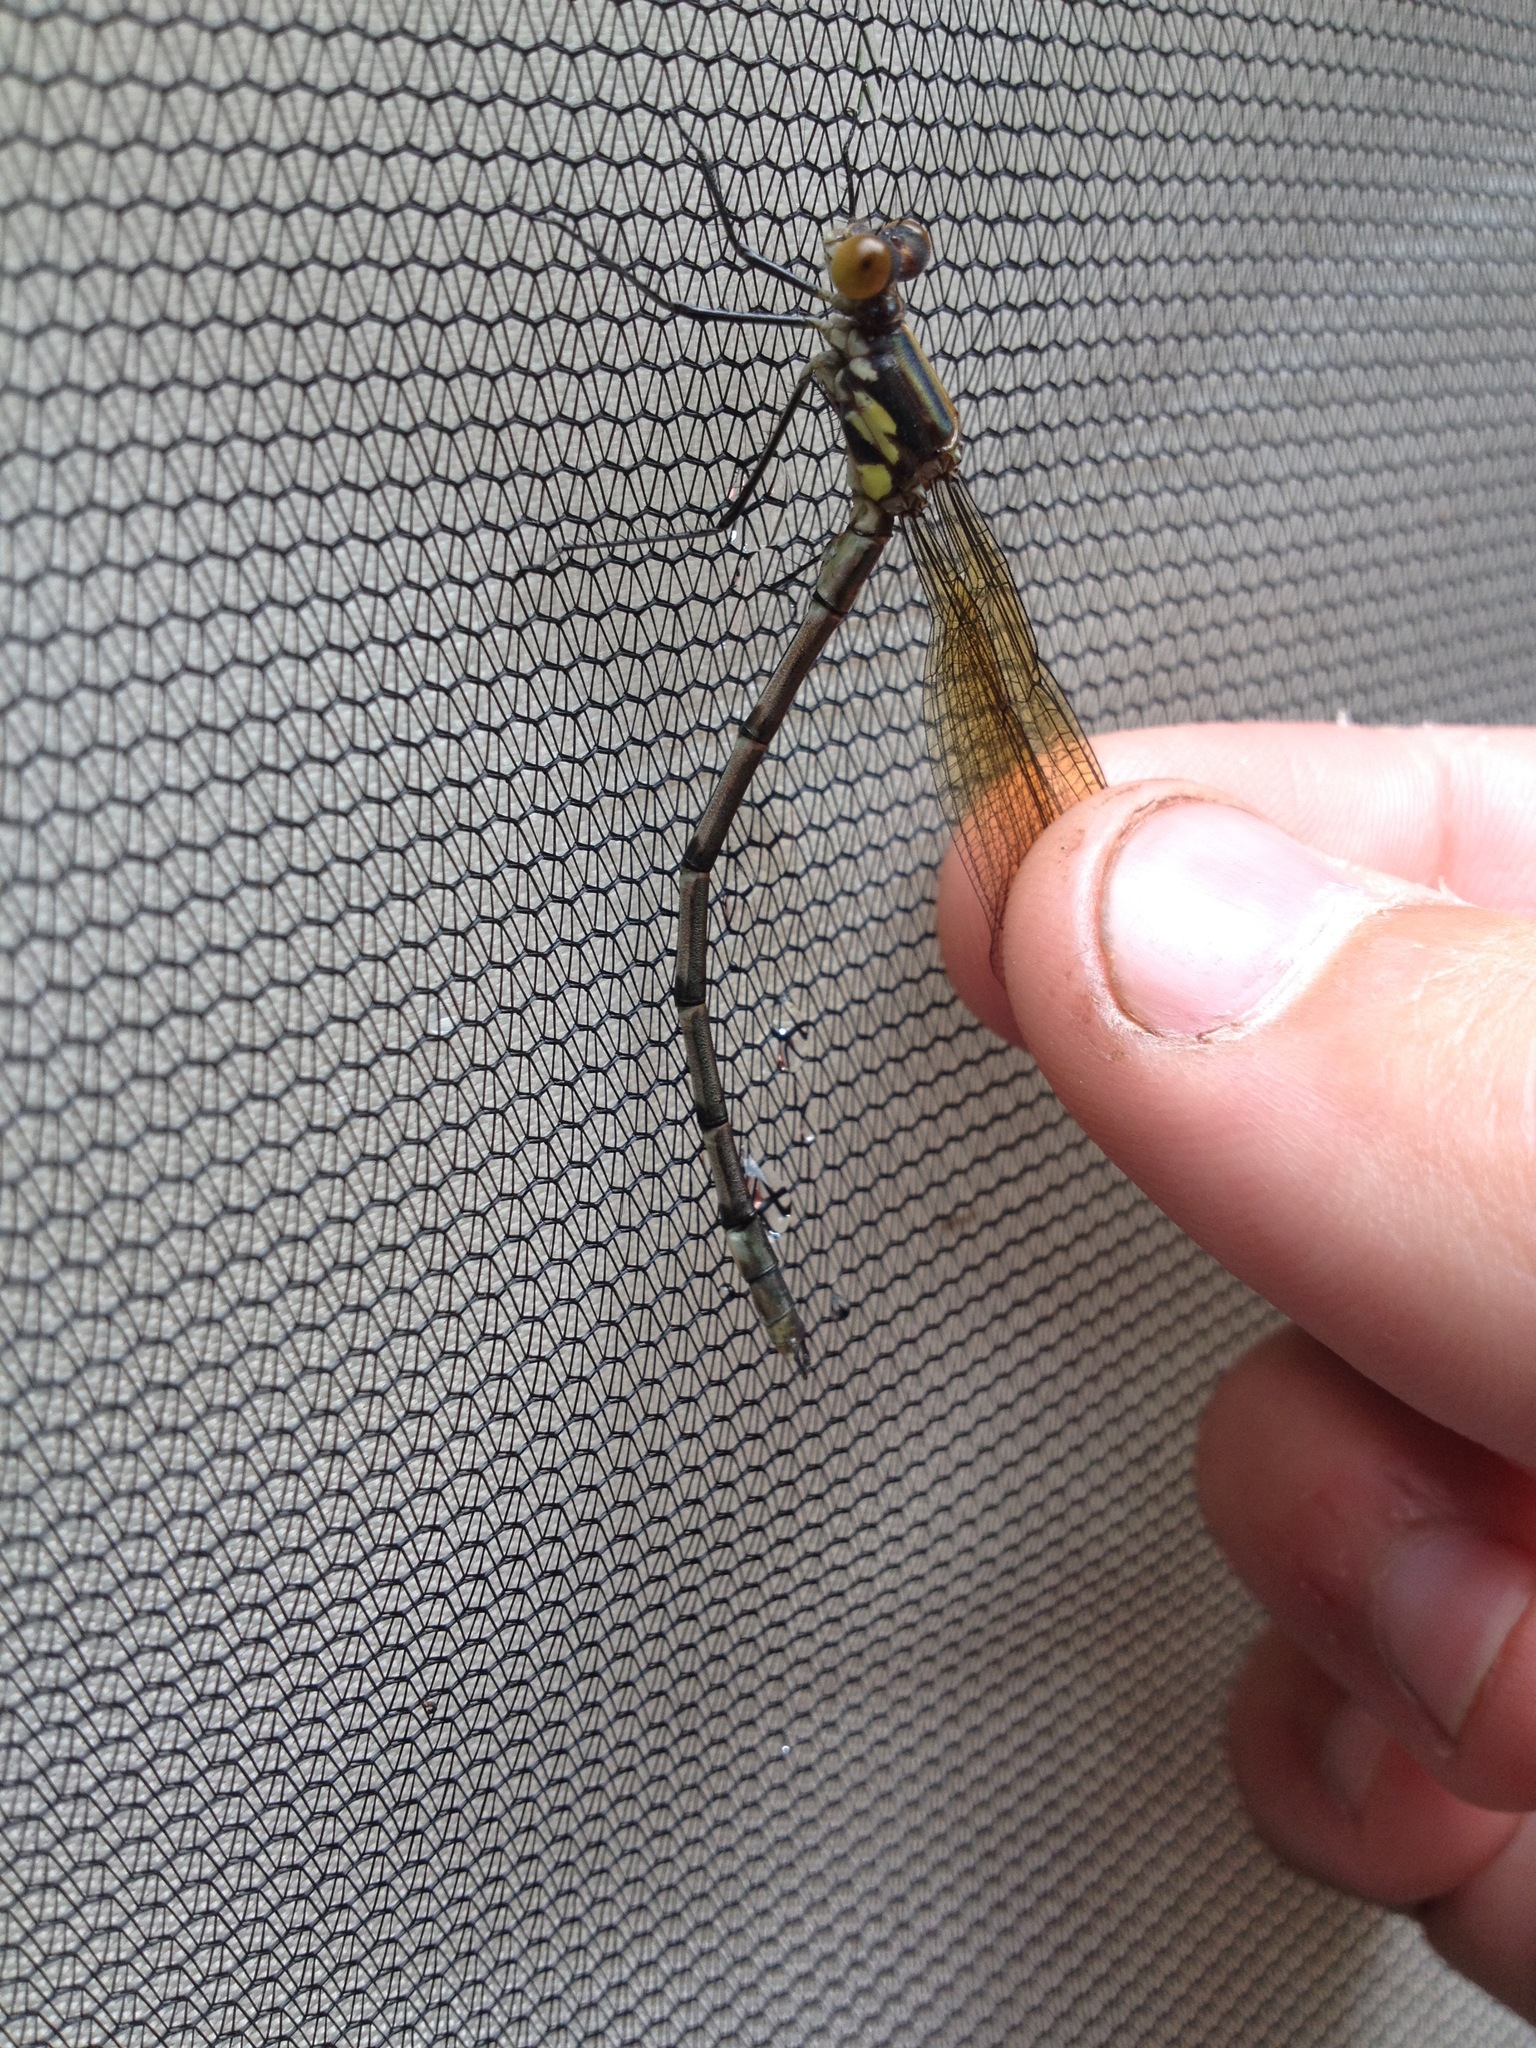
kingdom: Animalia
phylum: Arthropoda
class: Insecta
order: Odonata
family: Lestidae
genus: Lestes
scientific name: Lestes eurinus
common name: Amber-winged spreadwing
